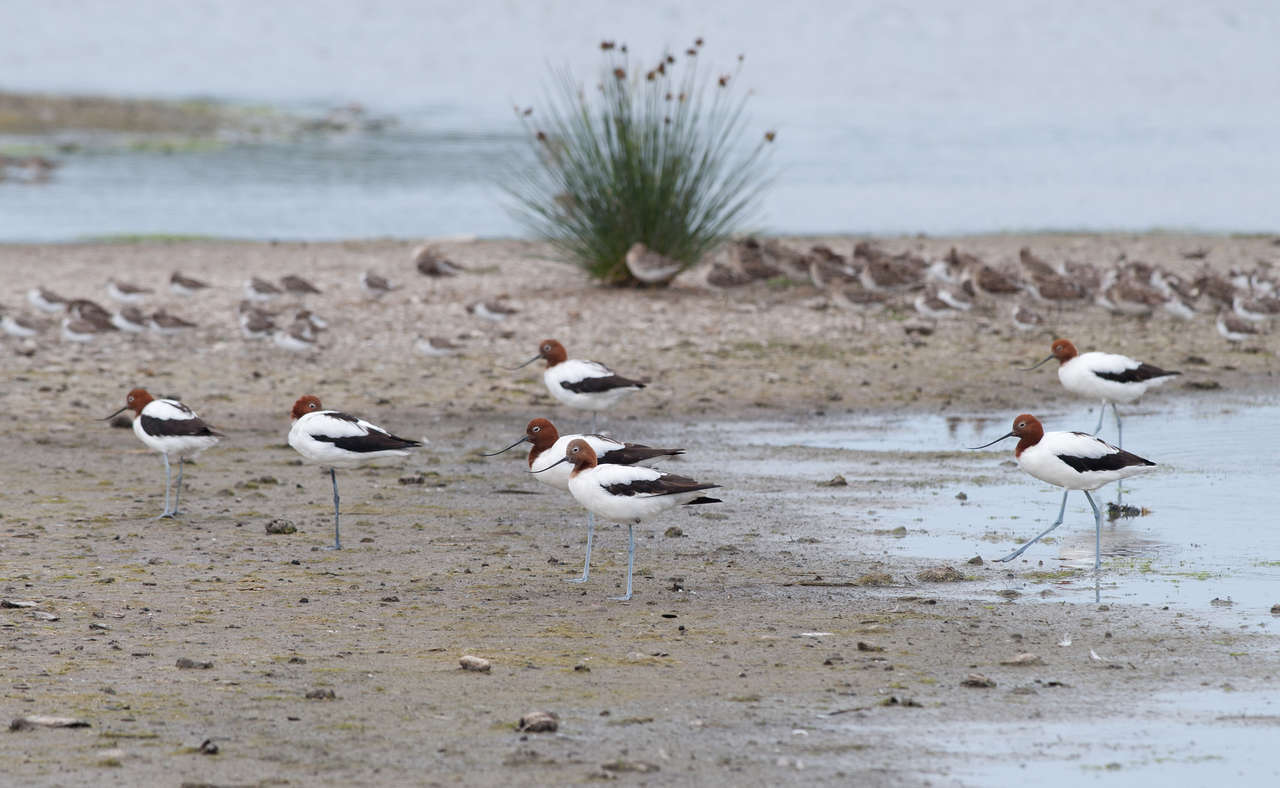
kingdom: Animalia
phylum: Chordata
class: Aves
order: Charadriiformes
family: Recurvirostridae
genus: Recurvirostra
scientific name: Recurvirostra novaehollandiae
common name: Red-necked avocet
